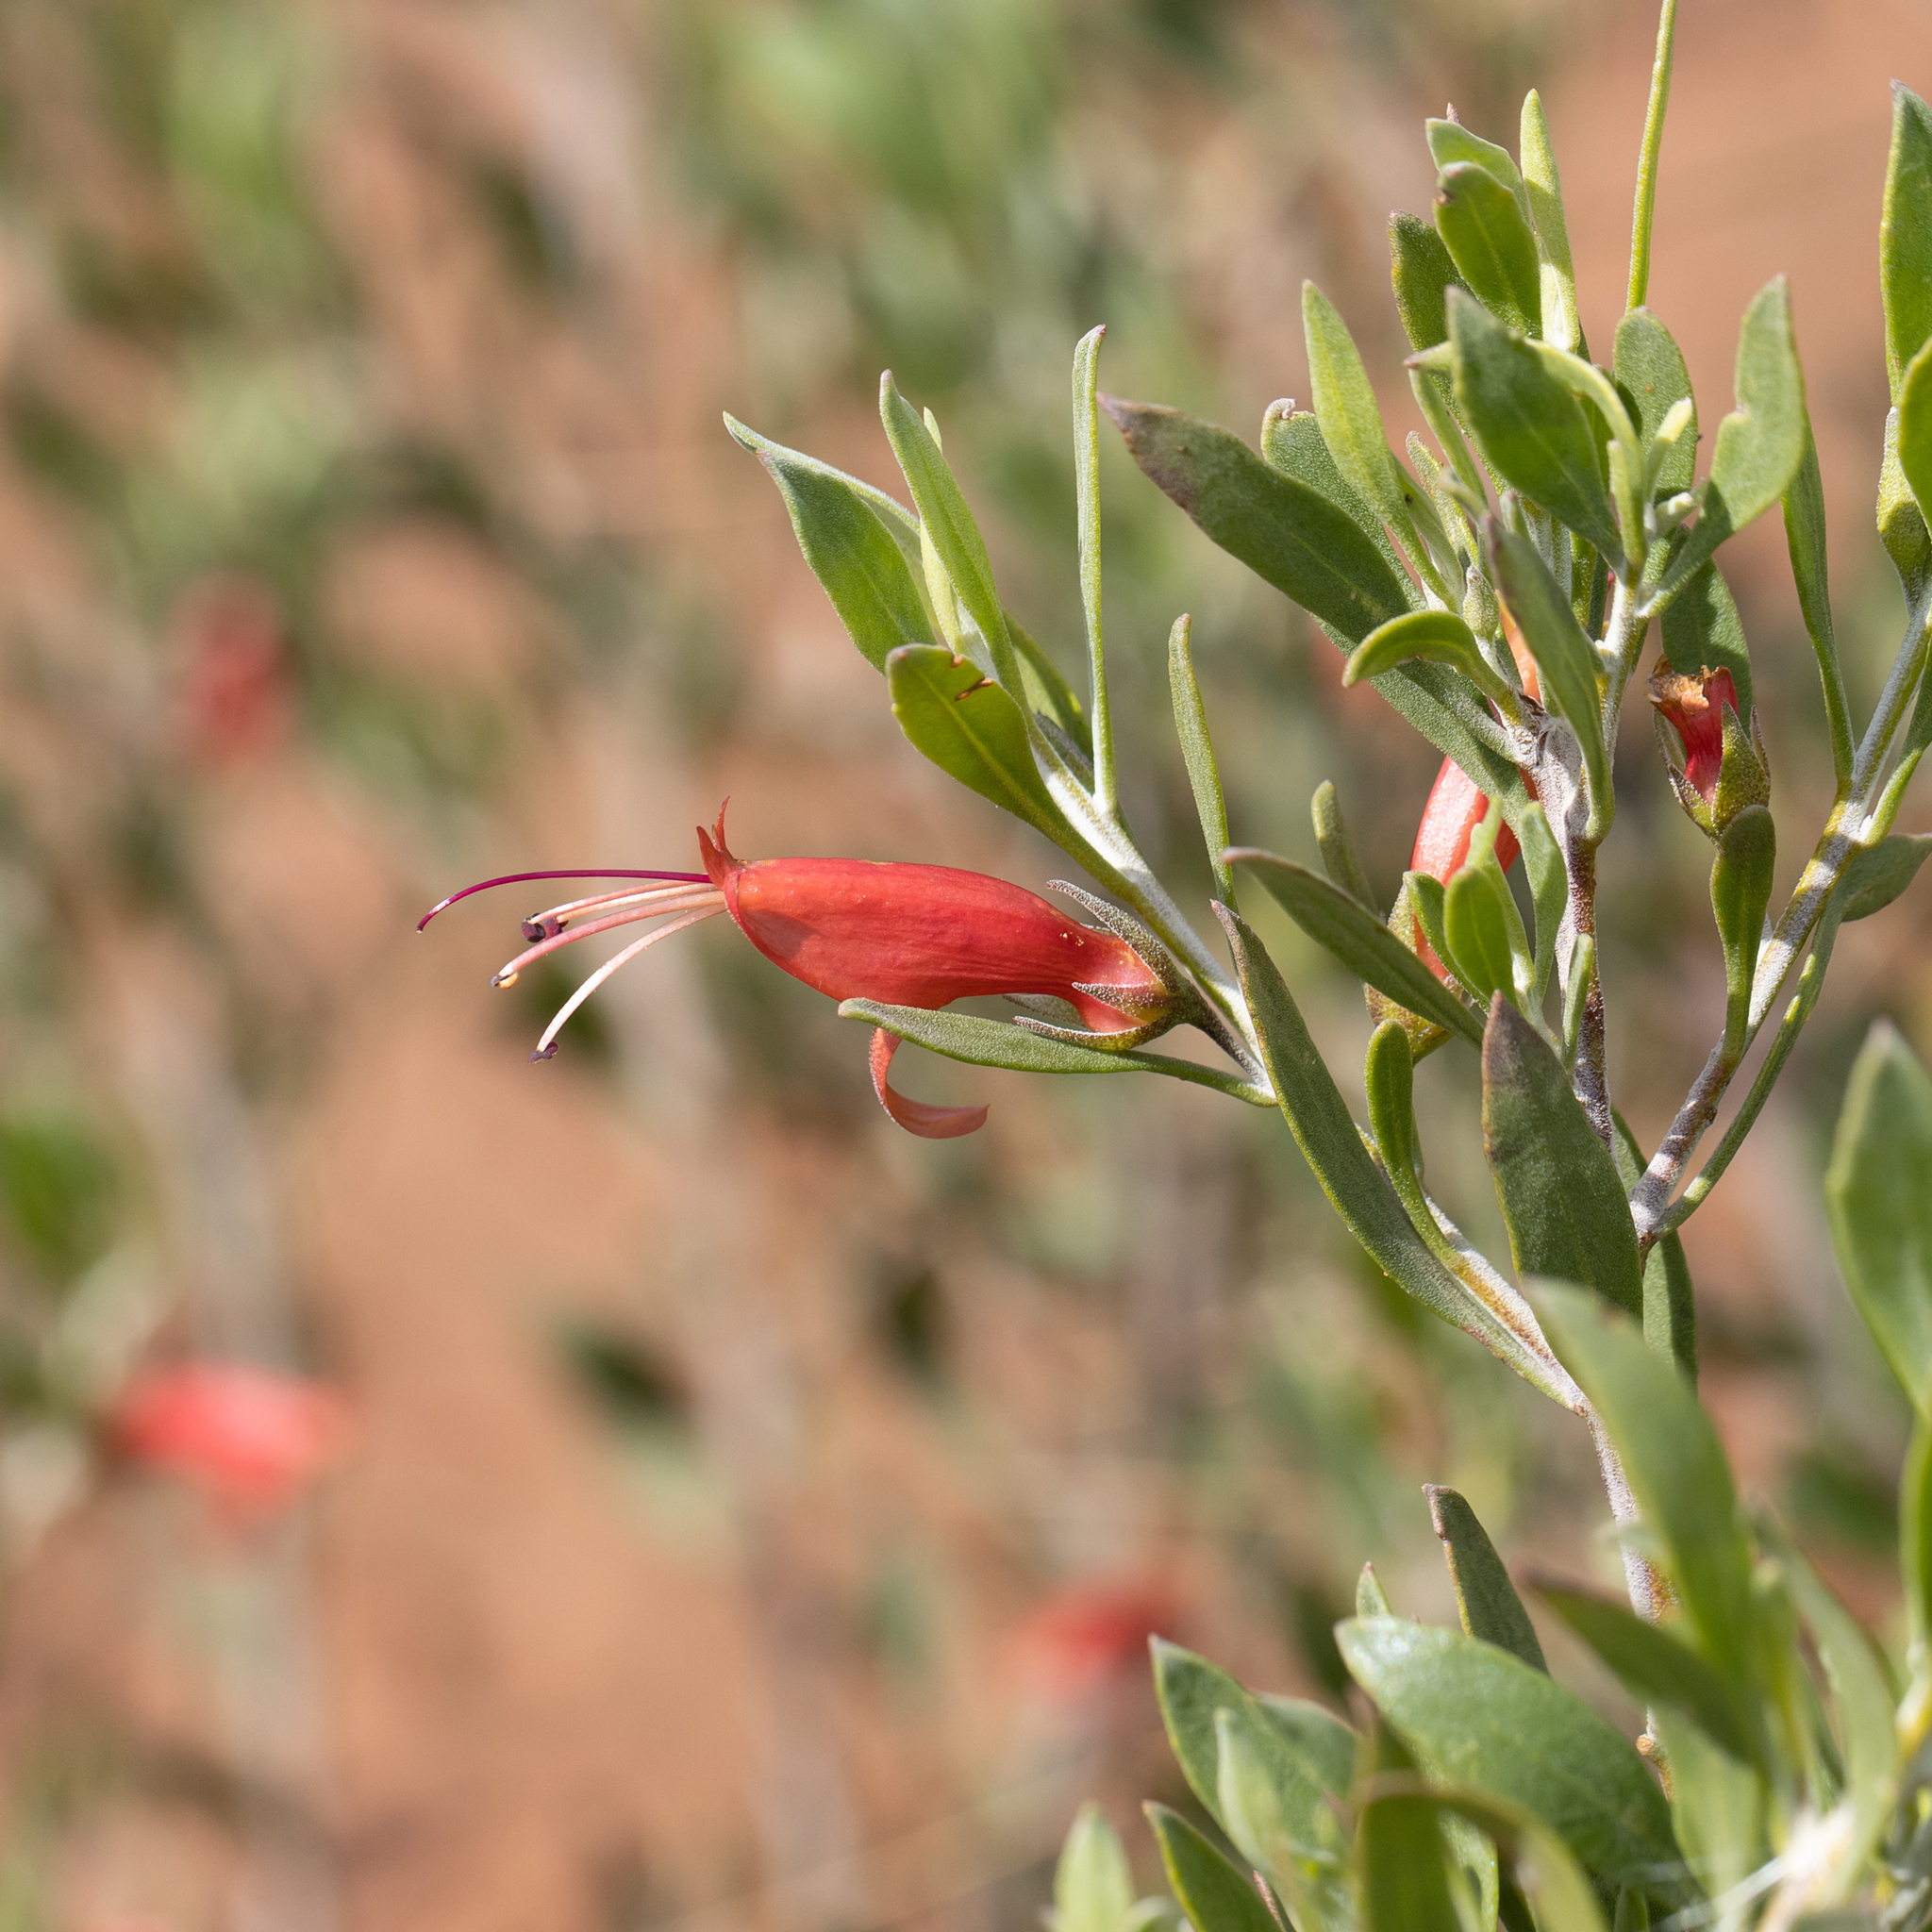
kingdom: Plantae
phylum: Tracheophyta
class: Magnoliopsida
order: Lamiales
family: Scrophulariaceae
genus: Eremophila
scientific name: Eremophila glabra
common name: Black-fuchsia
